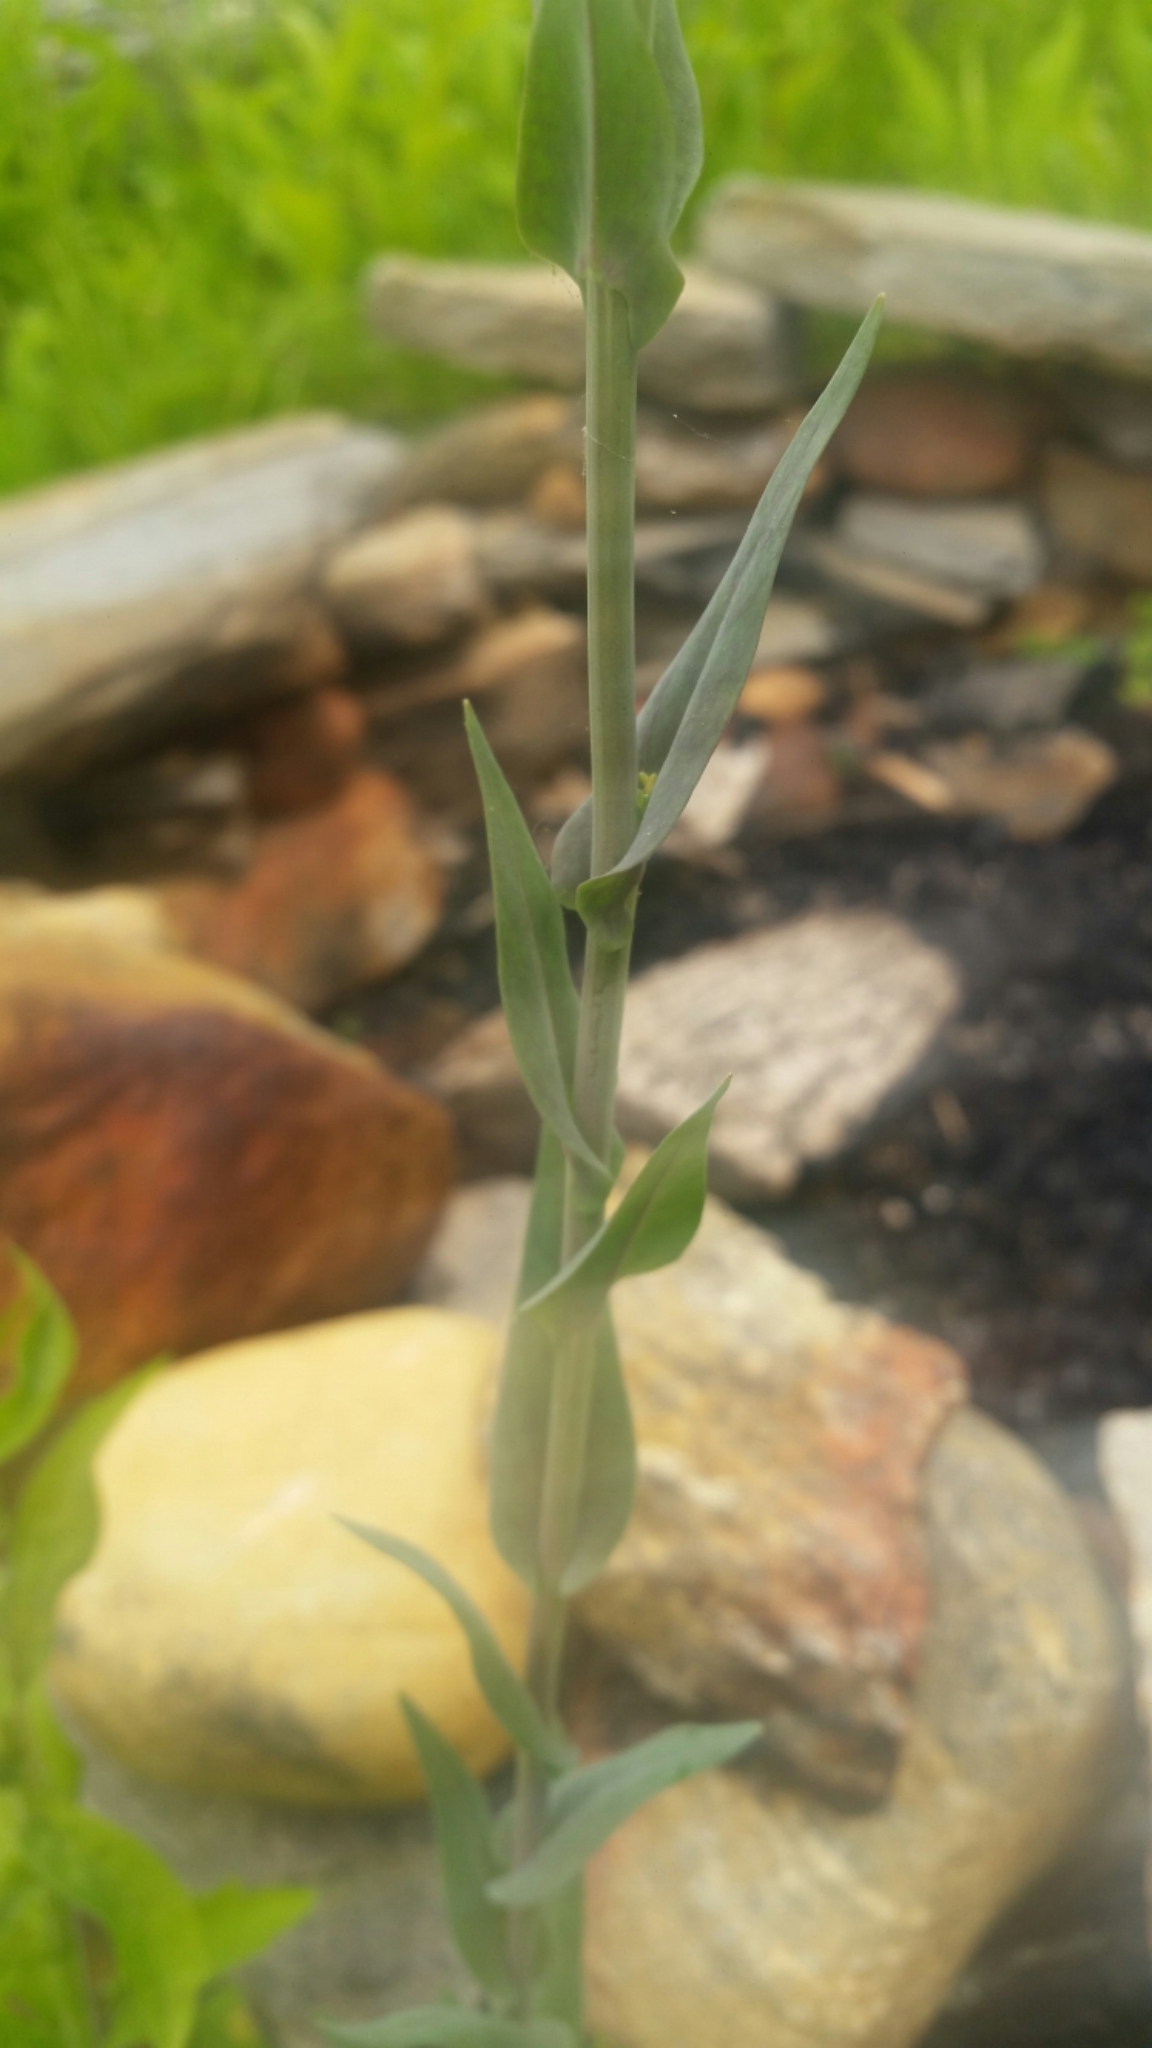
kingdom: Plantae
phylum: Tracheophyta
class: Magnoliopsida
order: Brassicales
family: Brassicaceae
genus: Turritis
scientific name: Turritis glabra
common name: Tower rockcress
